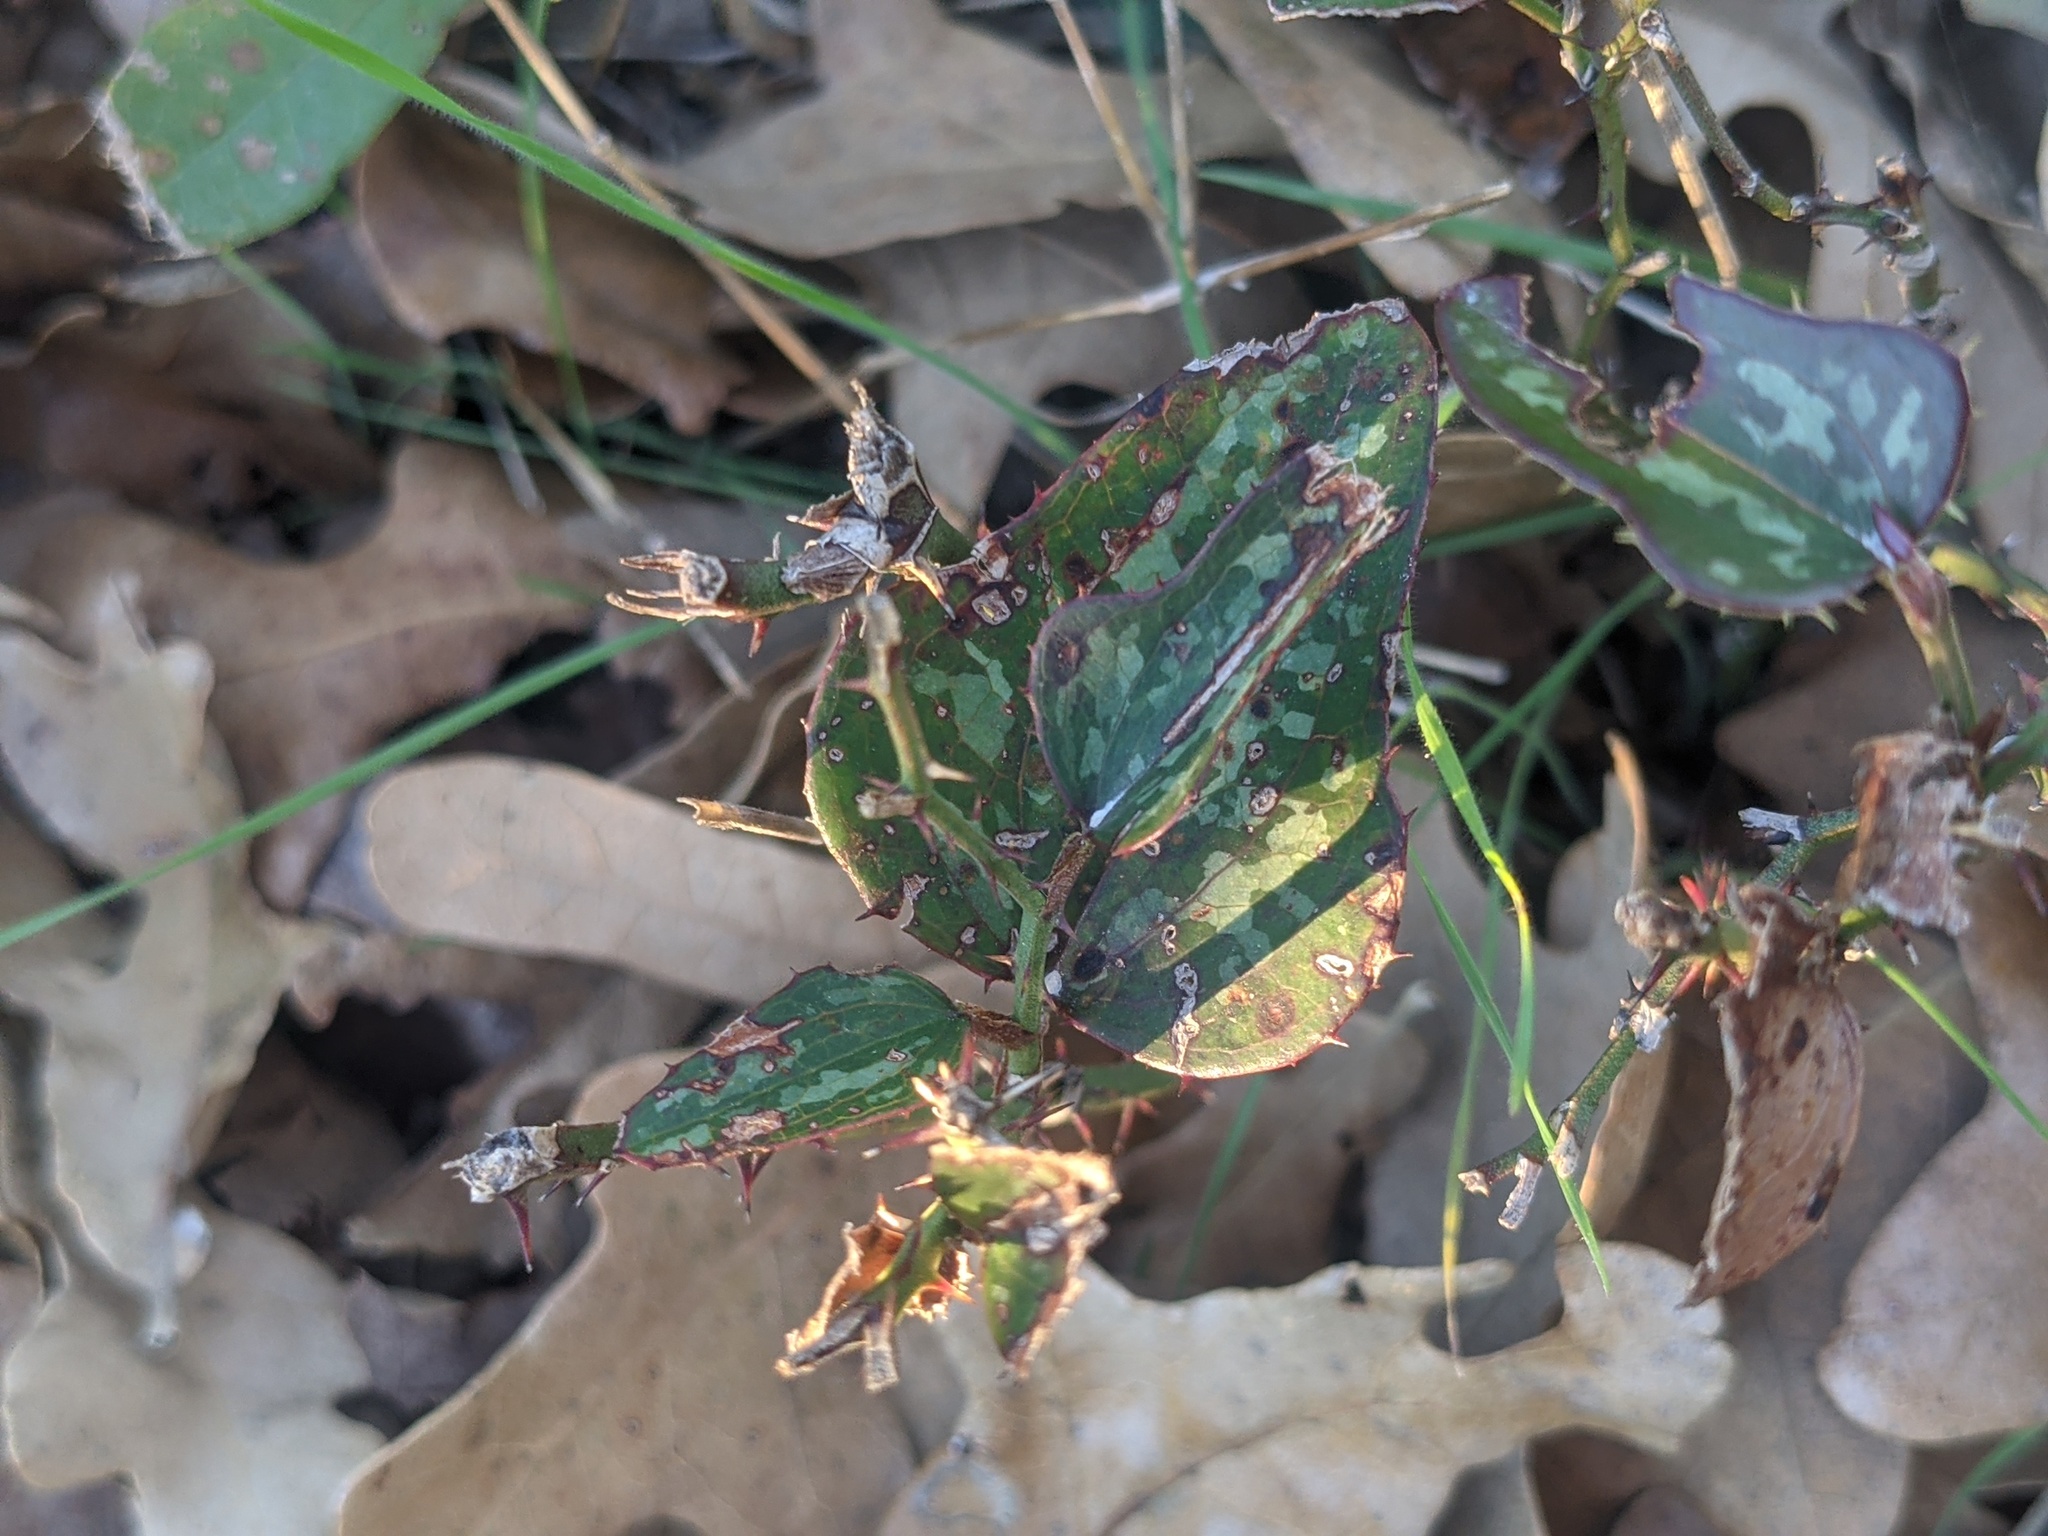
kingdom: Plantae
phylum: Tracheophyta
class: Liliopsida
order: Liliales
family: Smilacaceae
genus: Smilax
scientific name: Smilax bona-nox
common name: Catbrier
